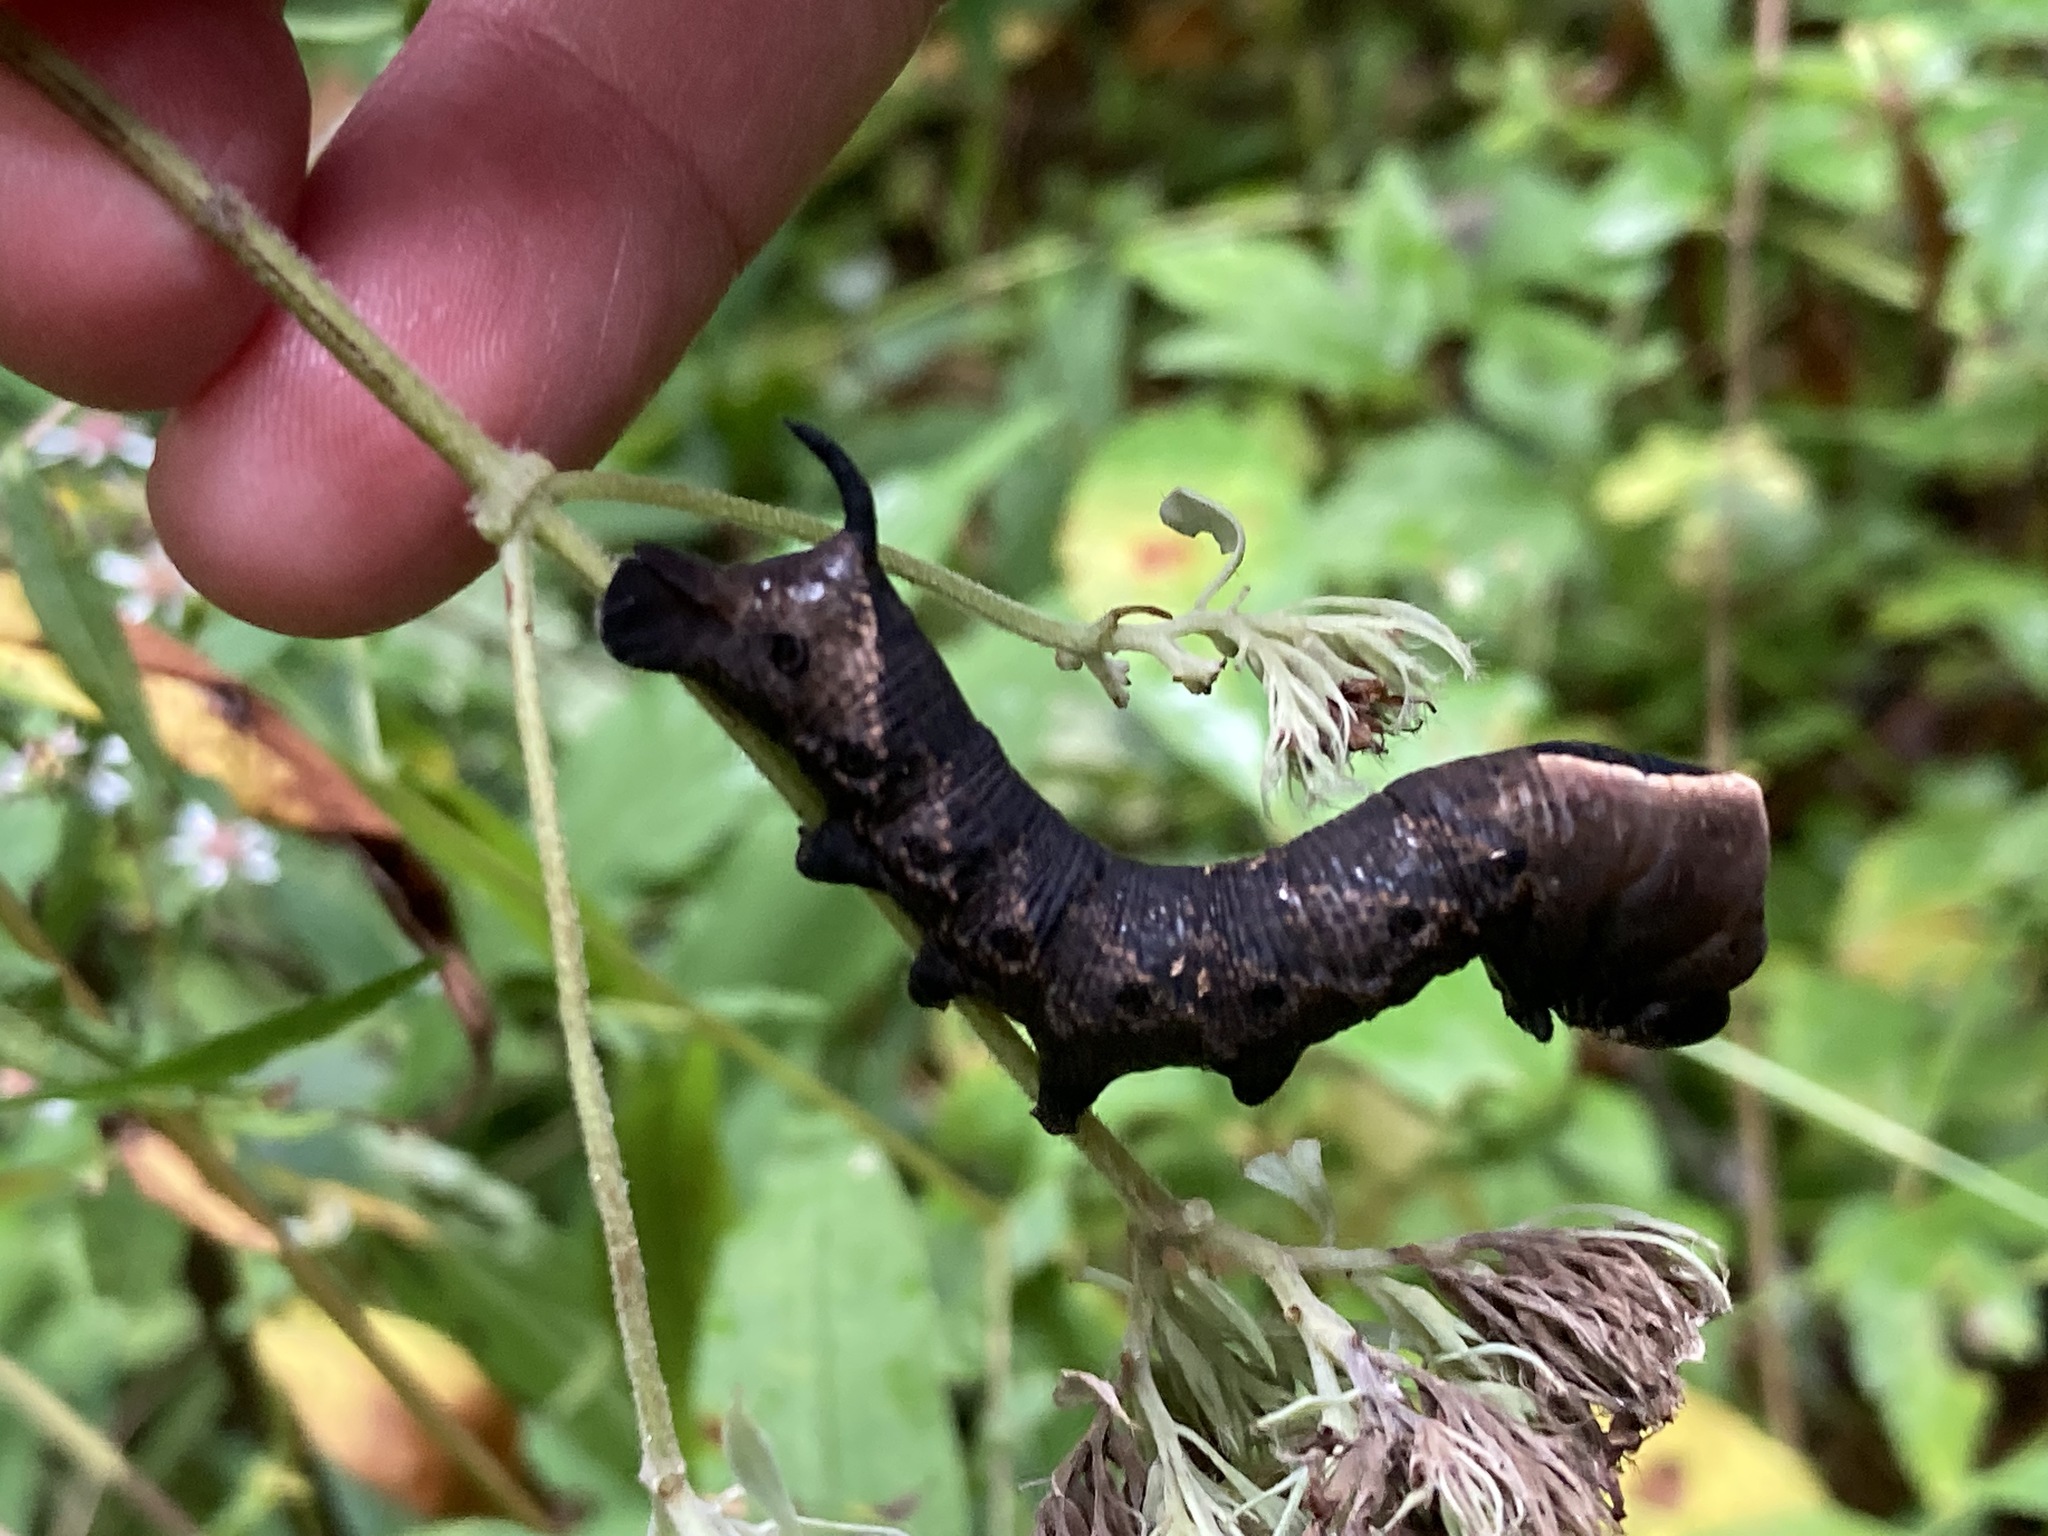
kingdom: Animalia
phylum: Arthropoda
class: Insecta
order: Lepidoptera
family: Sphingidae
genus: Lintneria
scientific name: Lintneria eremitus
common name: Hermit sphinx
